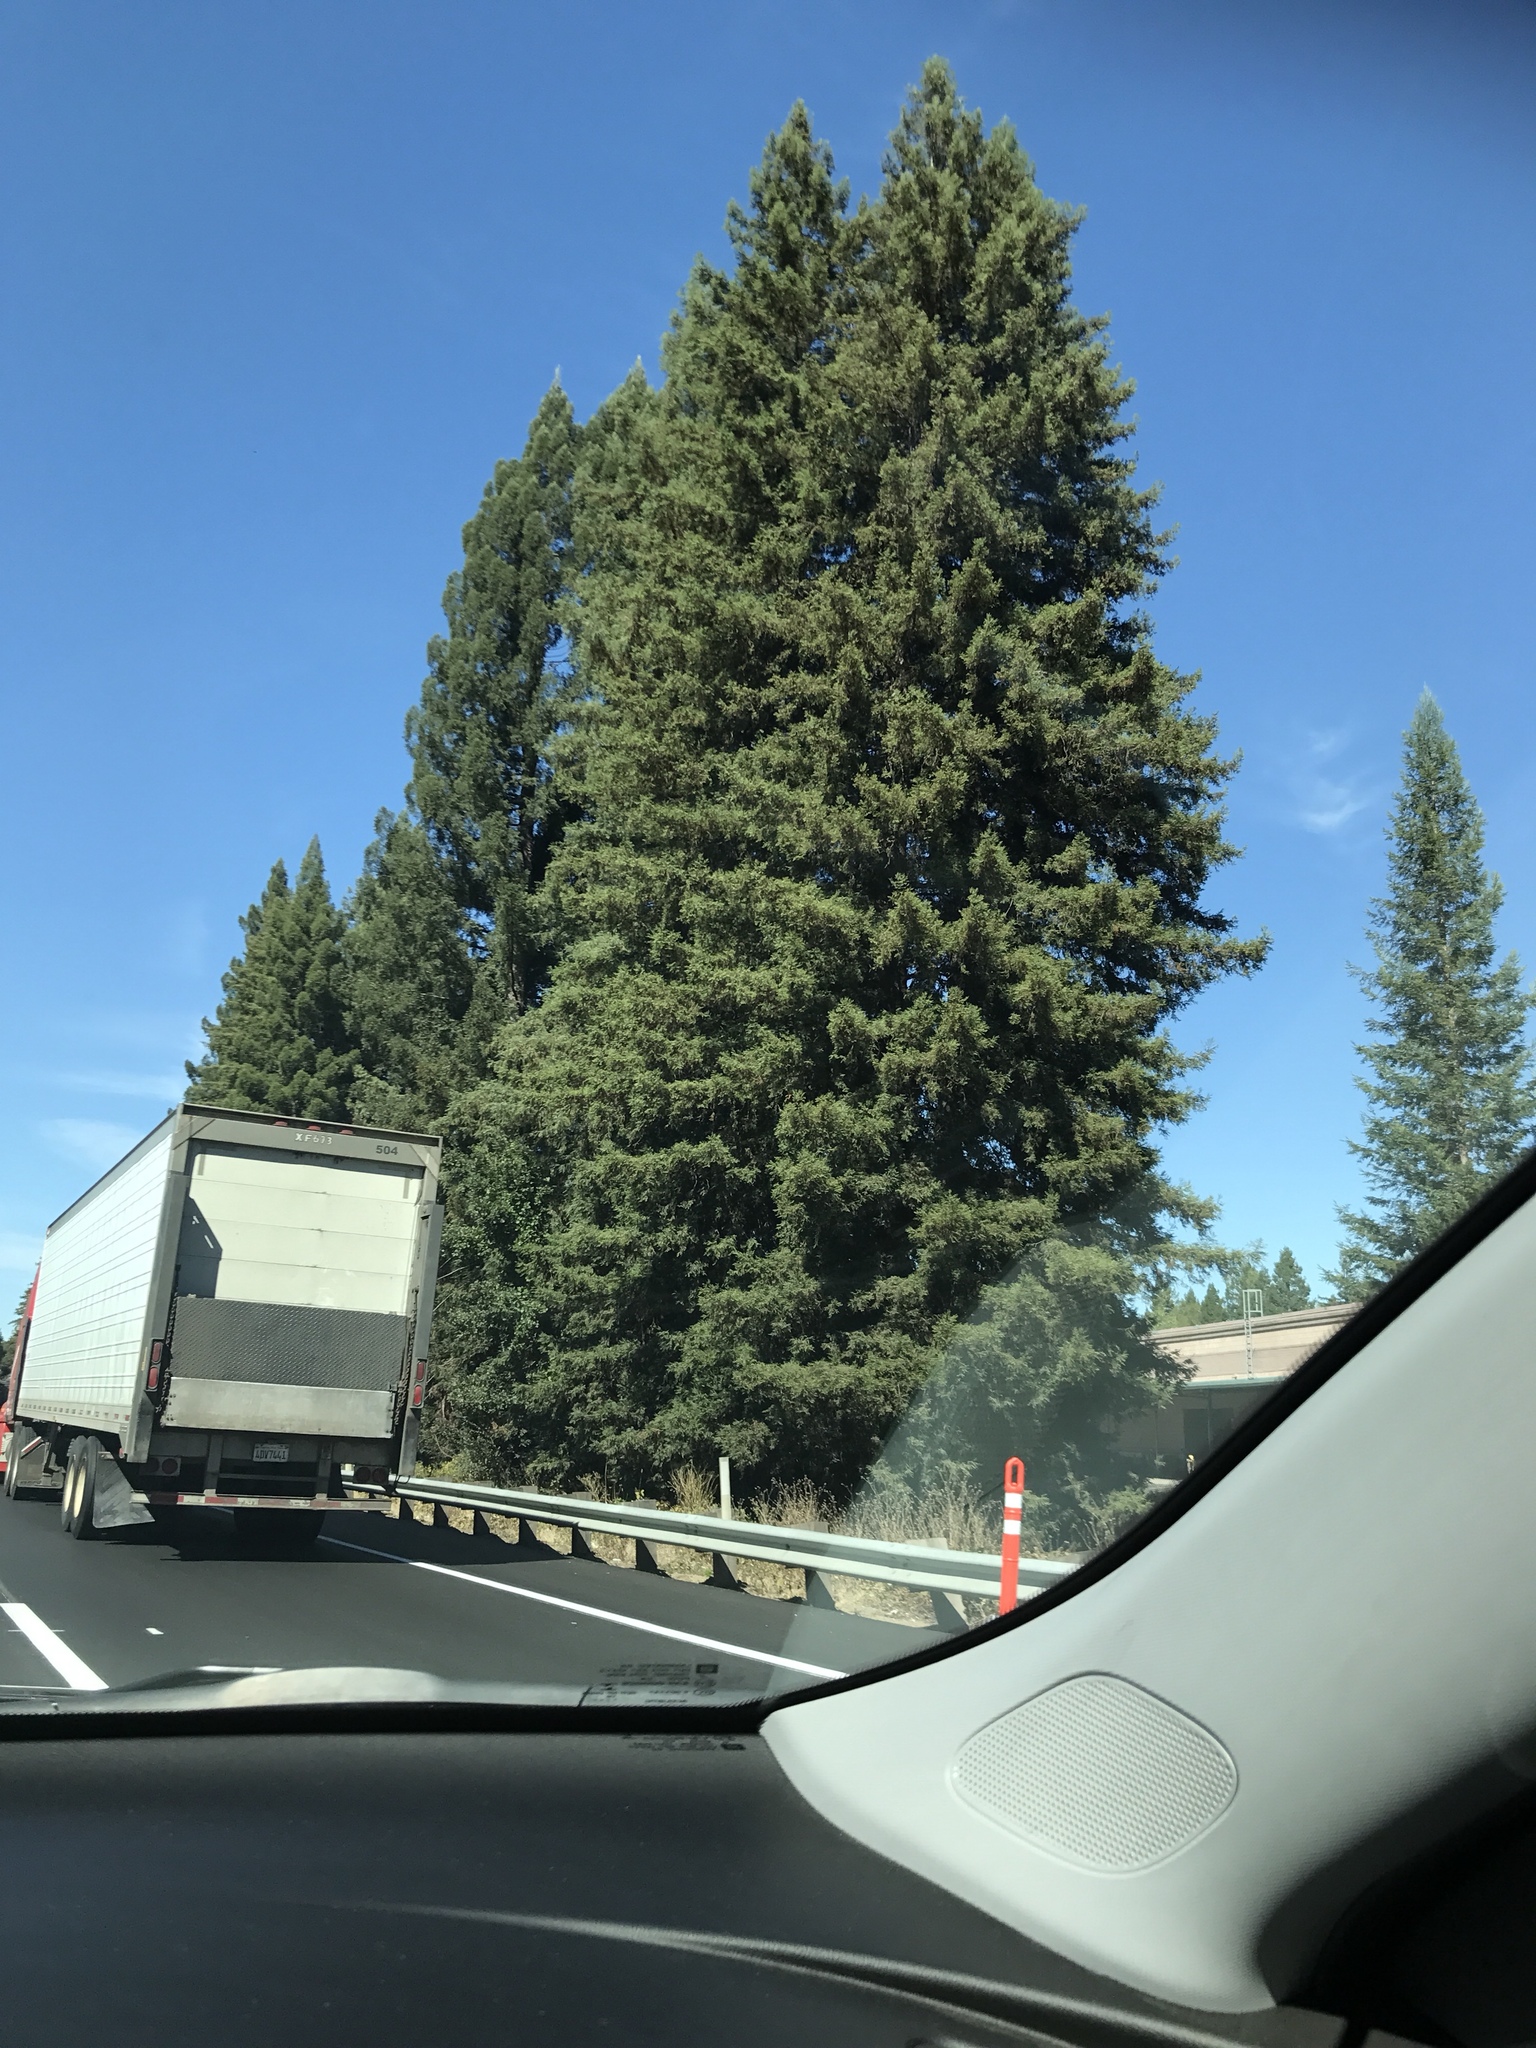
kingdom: Plantae
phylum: Tracheophyta
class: Pinopsida
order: Pinales
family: Cupressaceae
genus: Sequoia
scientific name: Sequoia sempervirens
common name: Coast redwood
